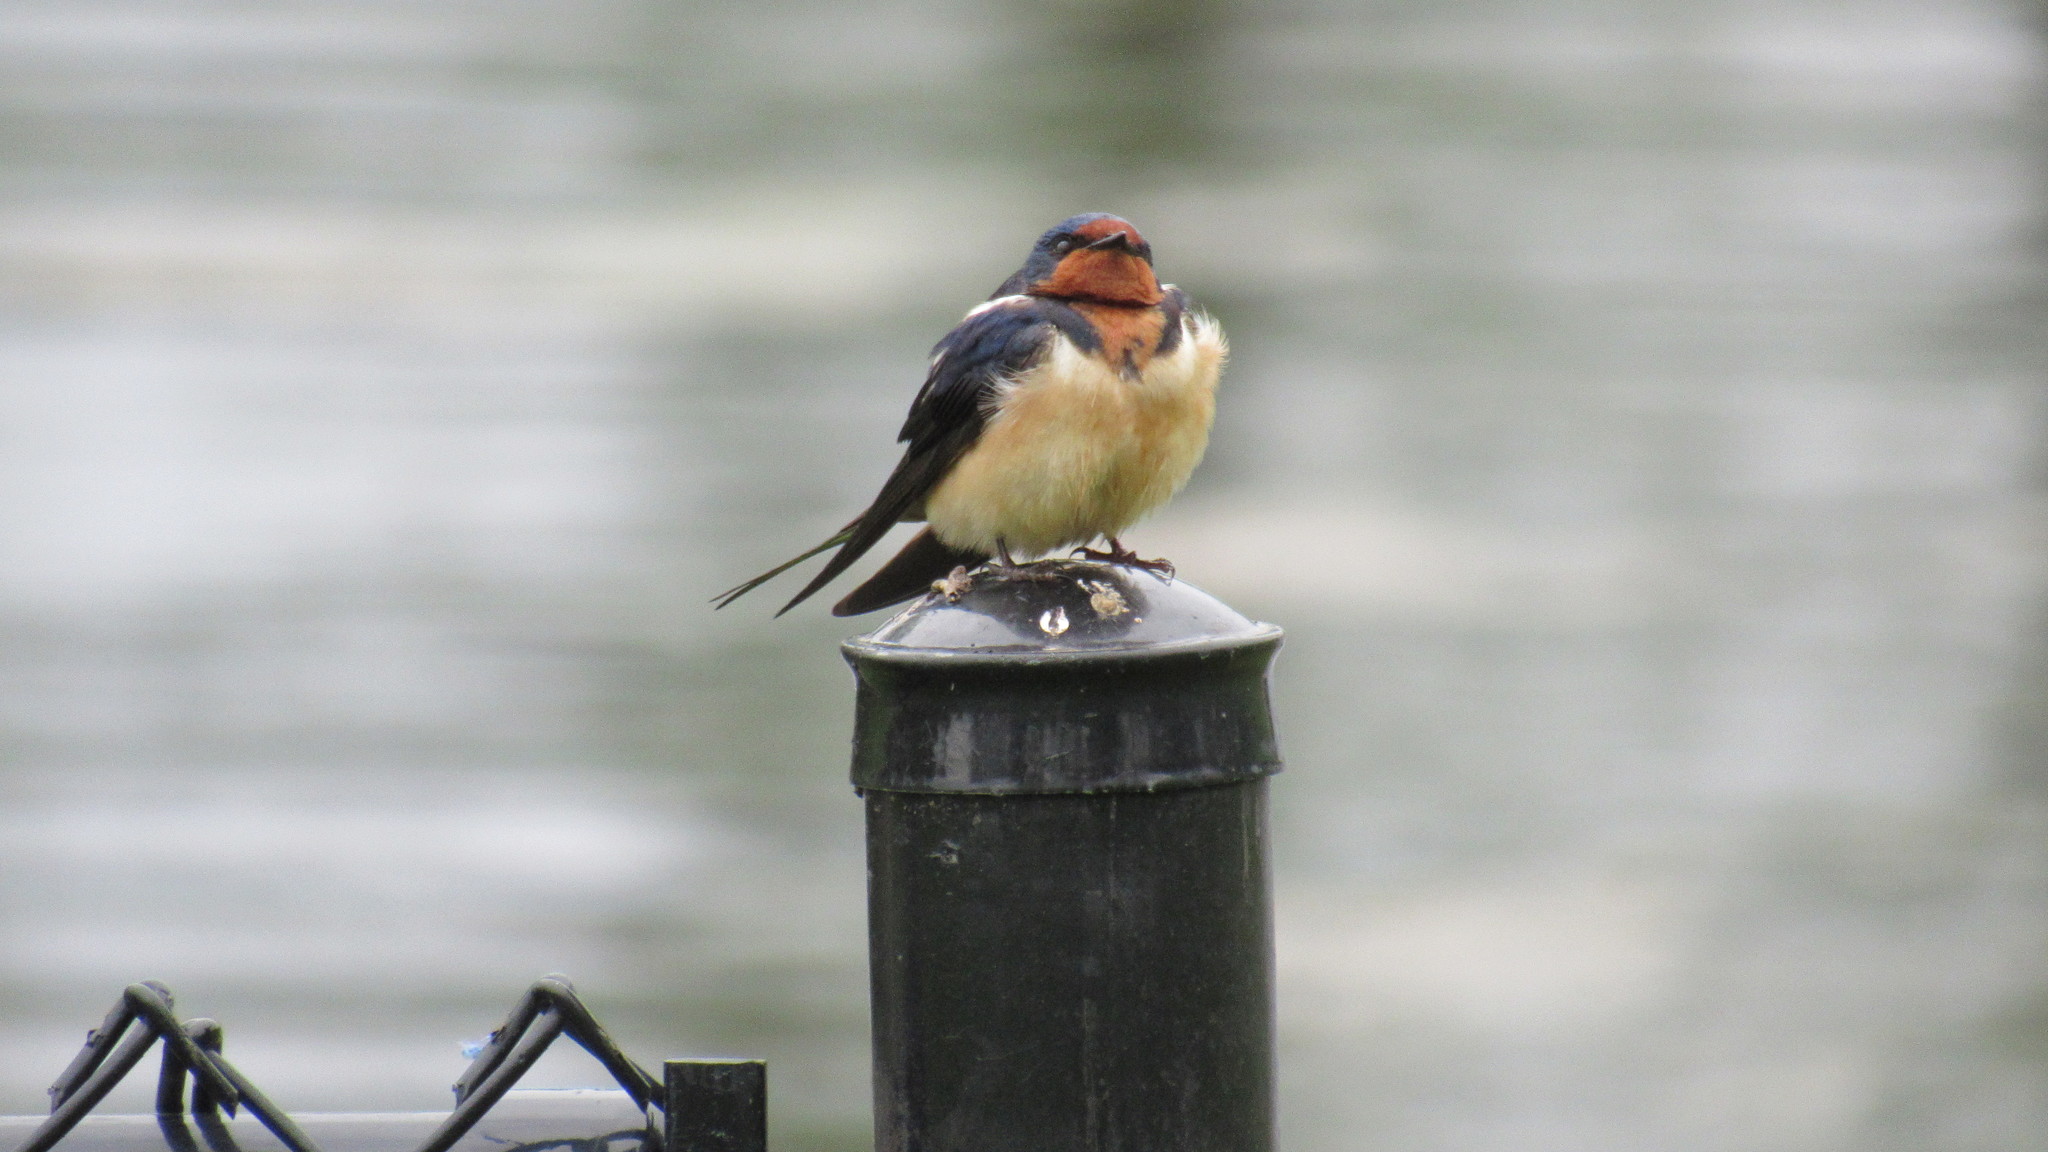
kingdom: Animalia
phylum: Chordata
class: Aves
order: Passeriformes
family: Hirundinidae
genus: Hirundo
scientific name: Hirundo rustica
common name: Barn swallow
